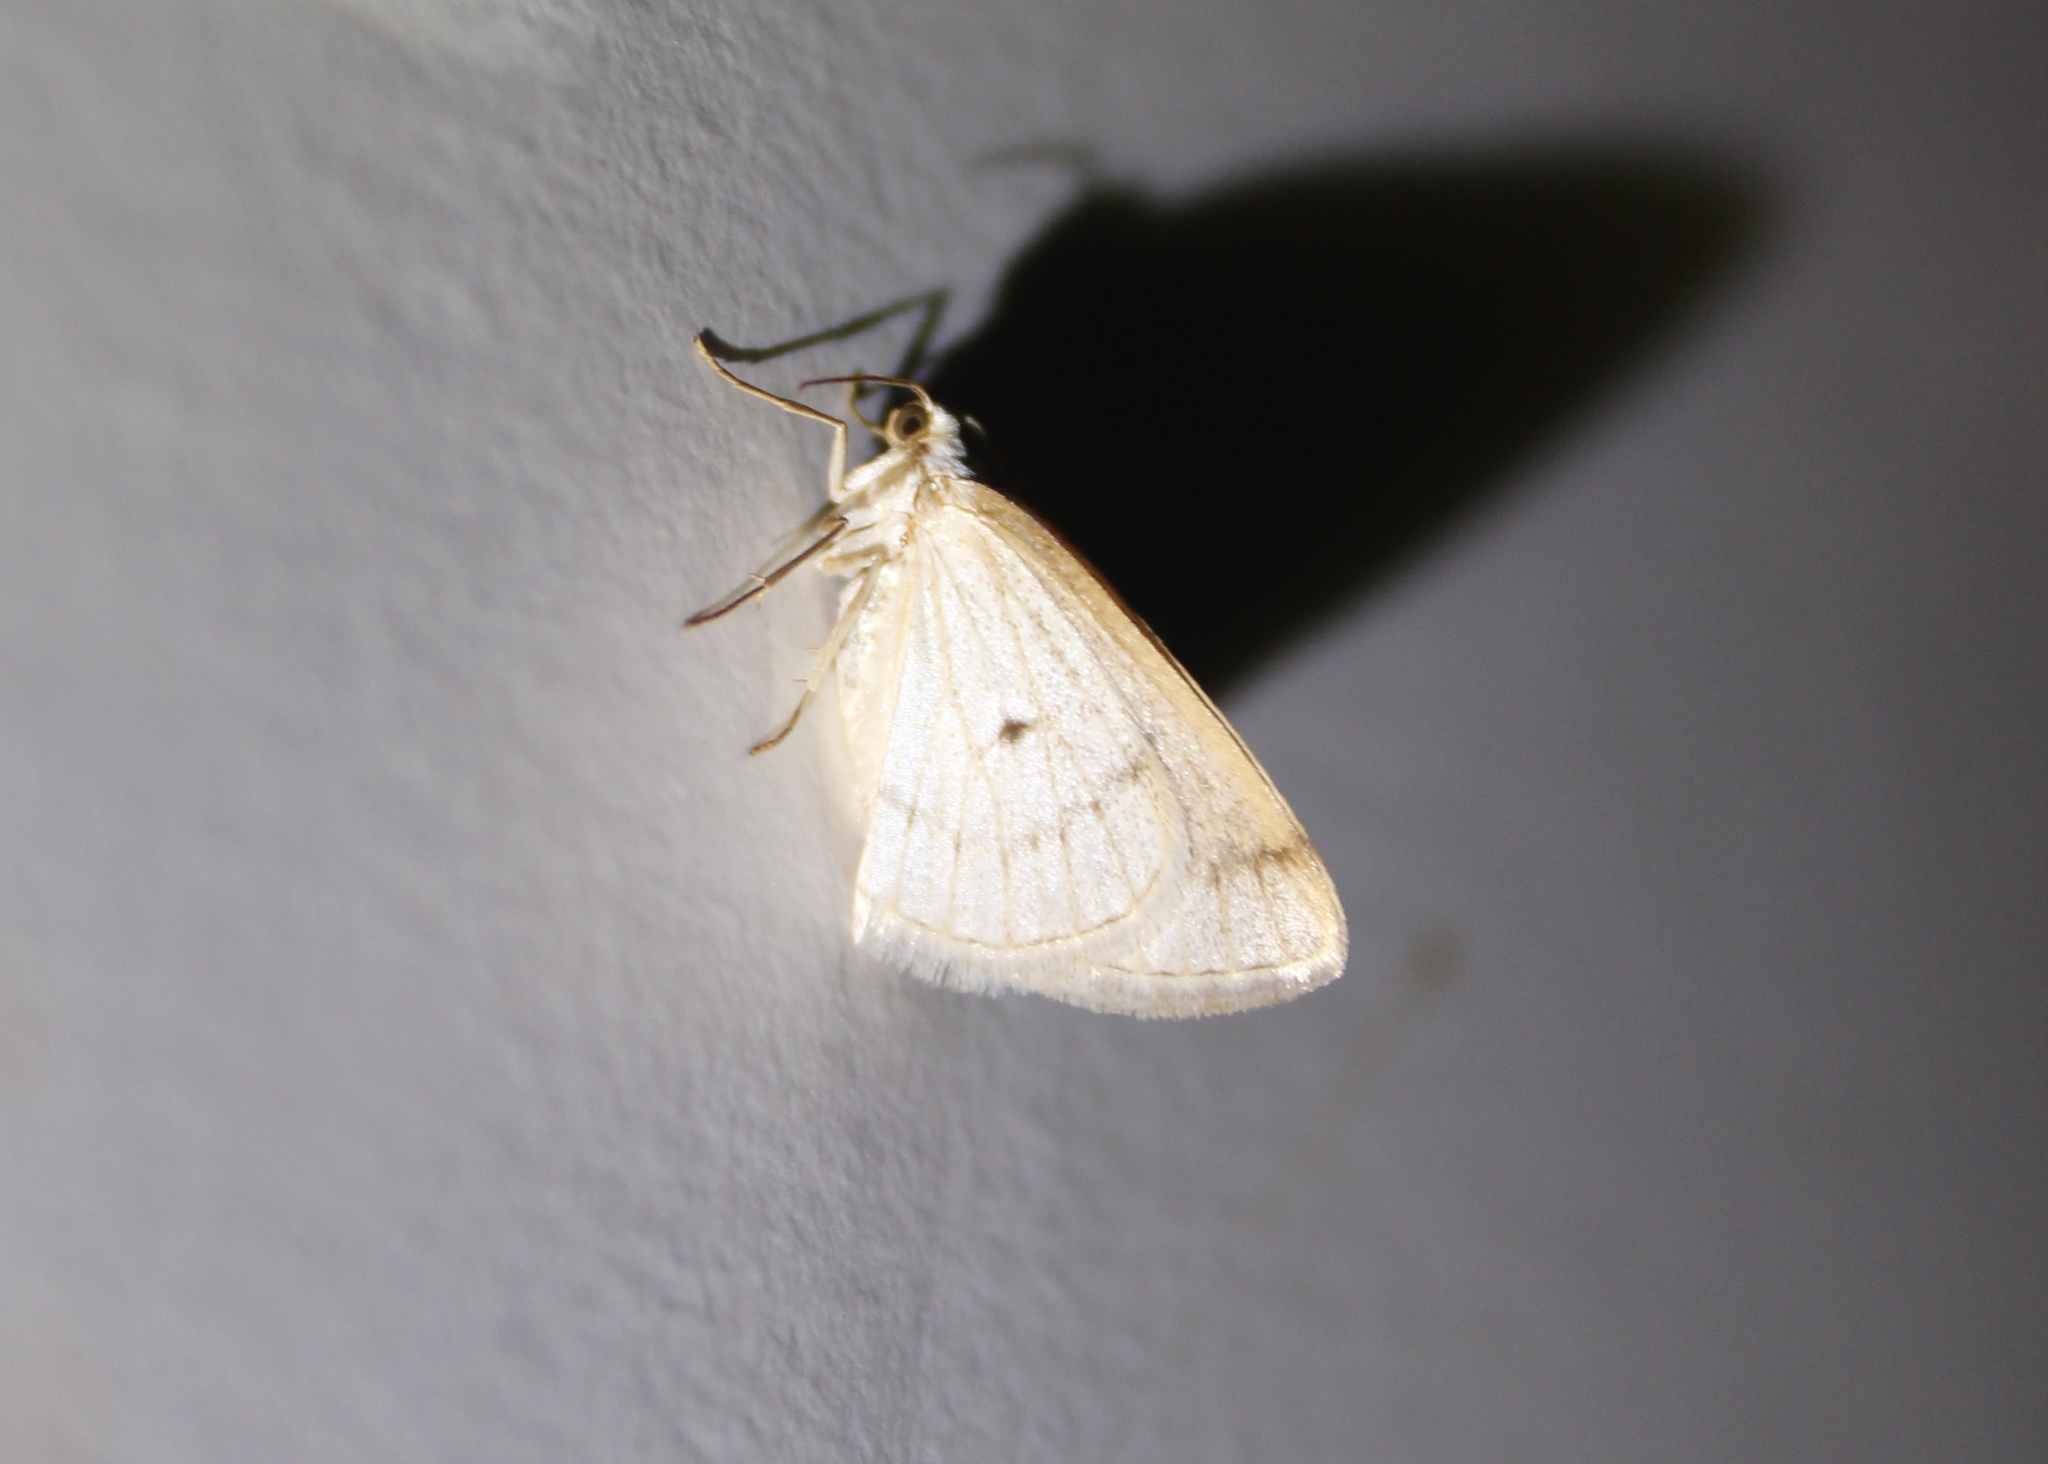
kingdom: Animalia
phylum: Arthropoda
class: Insecta
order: Lepidoptera
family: Geometridae
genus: Lomographa
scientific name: Lomographa glomeraria
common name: Gray spring moth
